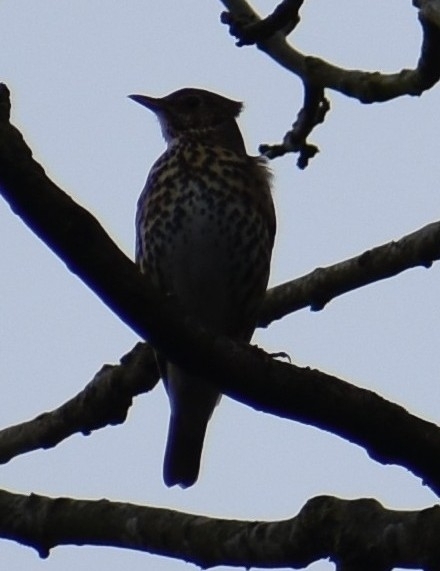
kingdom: Animalia
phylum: Chordata
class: Aves
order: Passeriformes
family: Turdidae
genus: Turdus
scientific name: Turdus philomelos
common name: Song thrush
